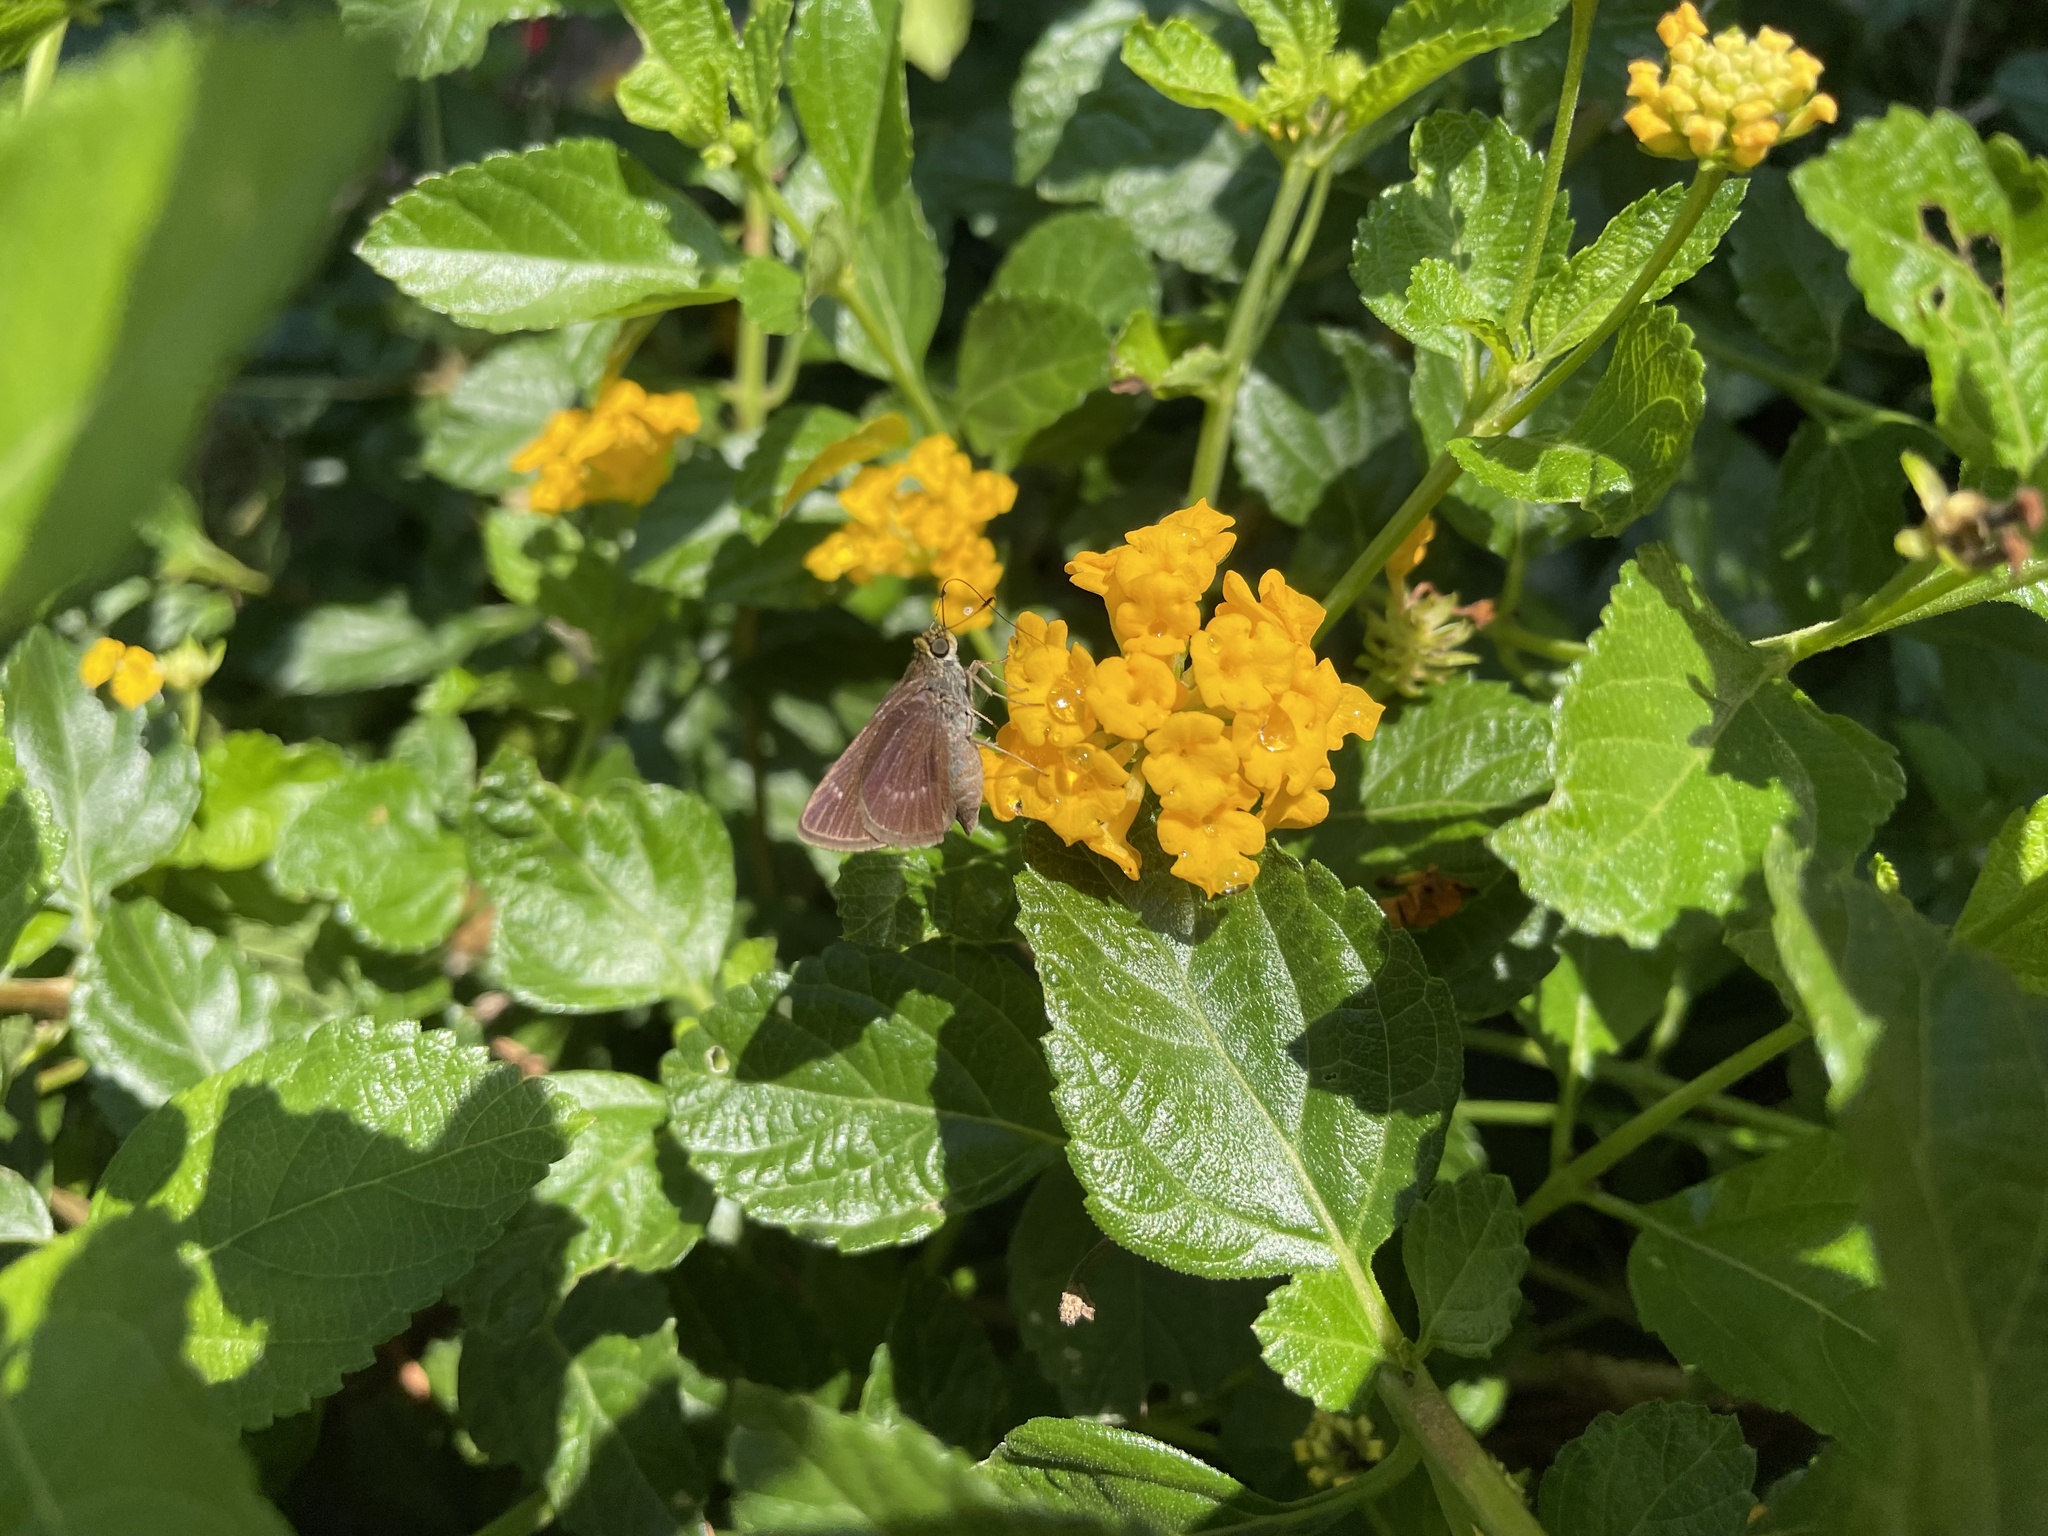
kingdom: Animalia
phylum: Arthropoda
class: Insecta
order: Lepidoptera
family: Hesperiidae
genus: Euphyes
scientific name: Euphyes vestris
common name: Dun skipper
